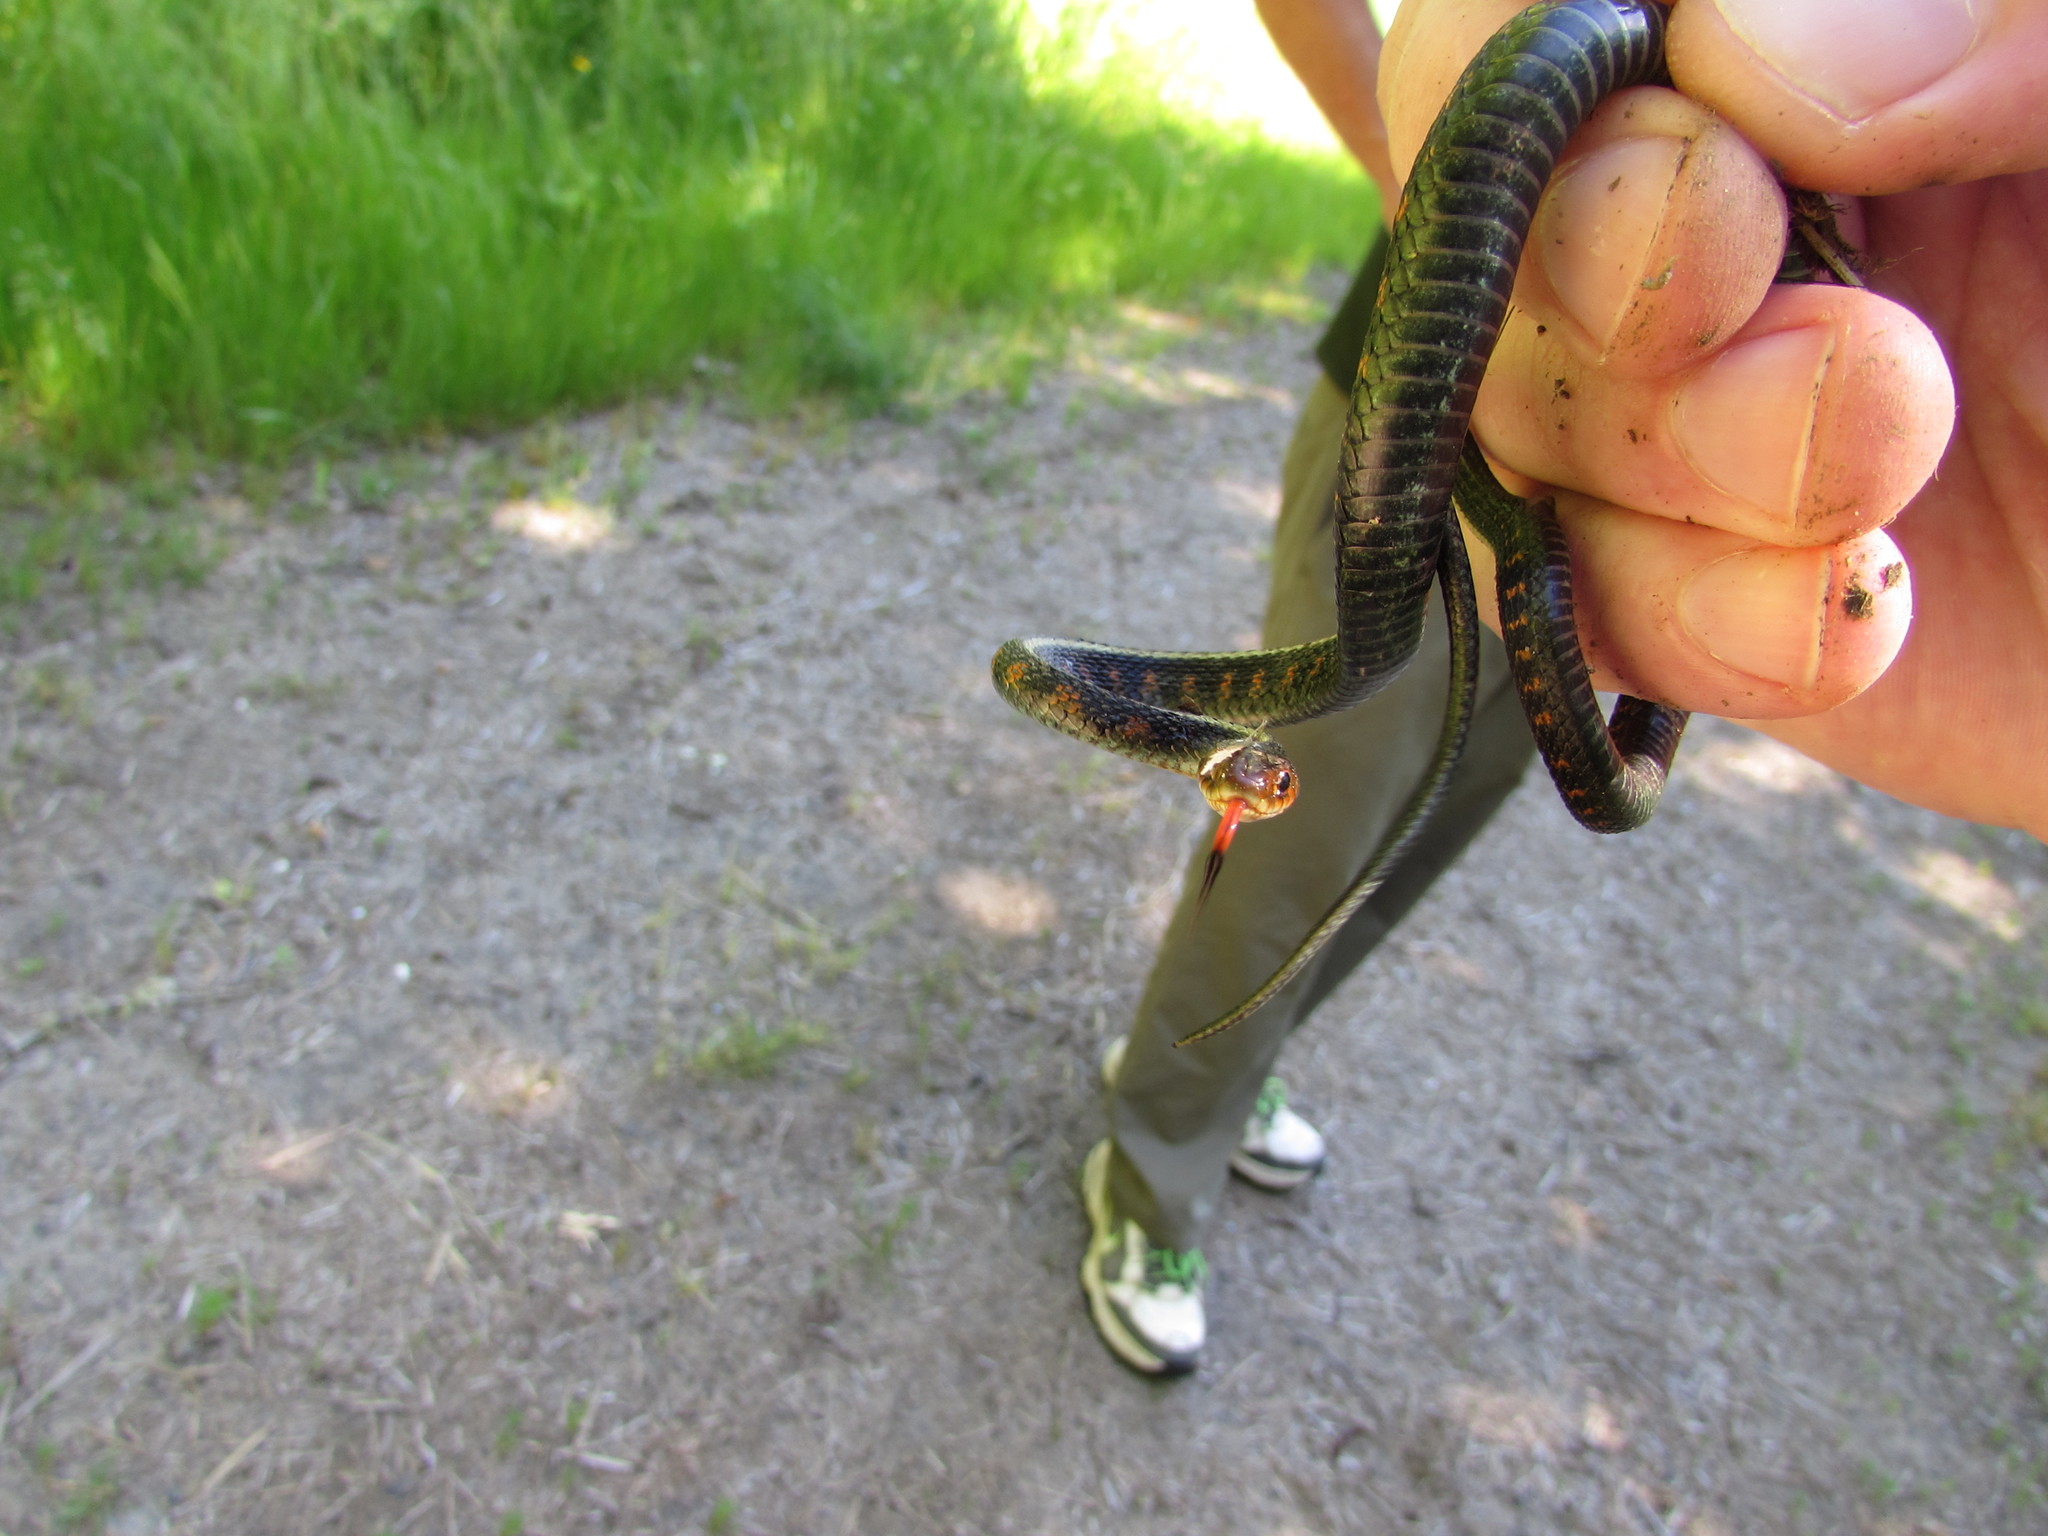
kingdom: Animalia
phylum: Chordata
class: Squamata
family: Colubridae
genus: Thamnophis
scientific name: Thamnophis sirtalis
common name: Common garter snake
